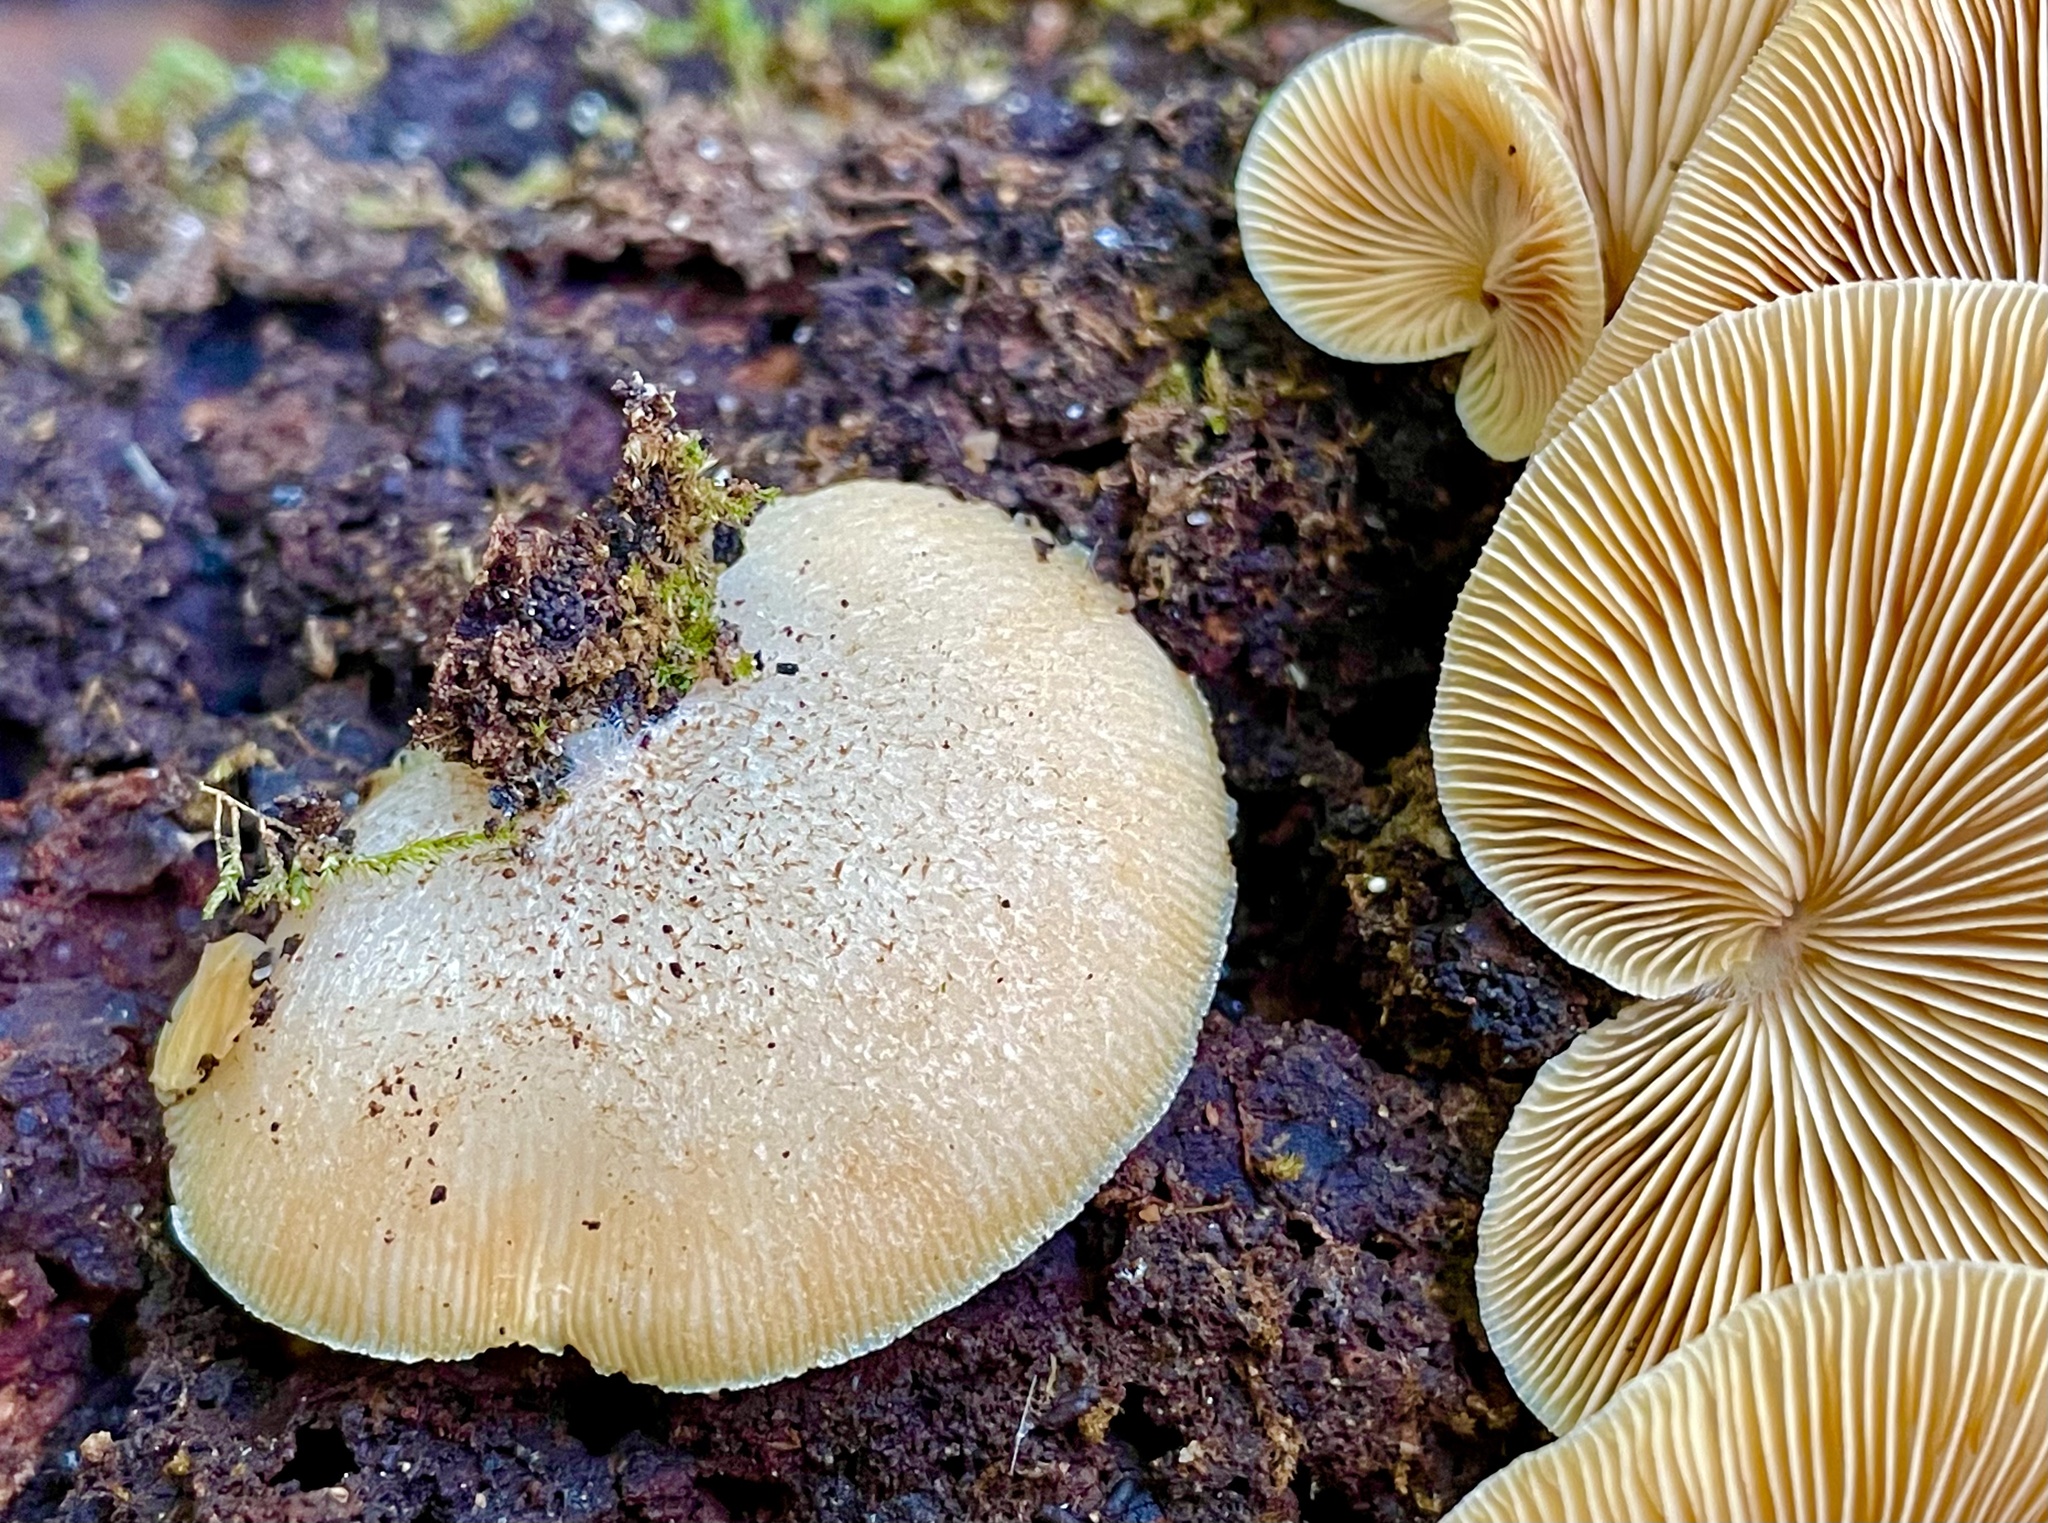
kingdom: Fungi
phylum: Basidiomycota
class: Agaricomycetes
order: Agaricales
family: Crepidotaceae
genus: Crepidotus
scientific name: Crepidotus crocophyllus
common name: Saffron oysterling
